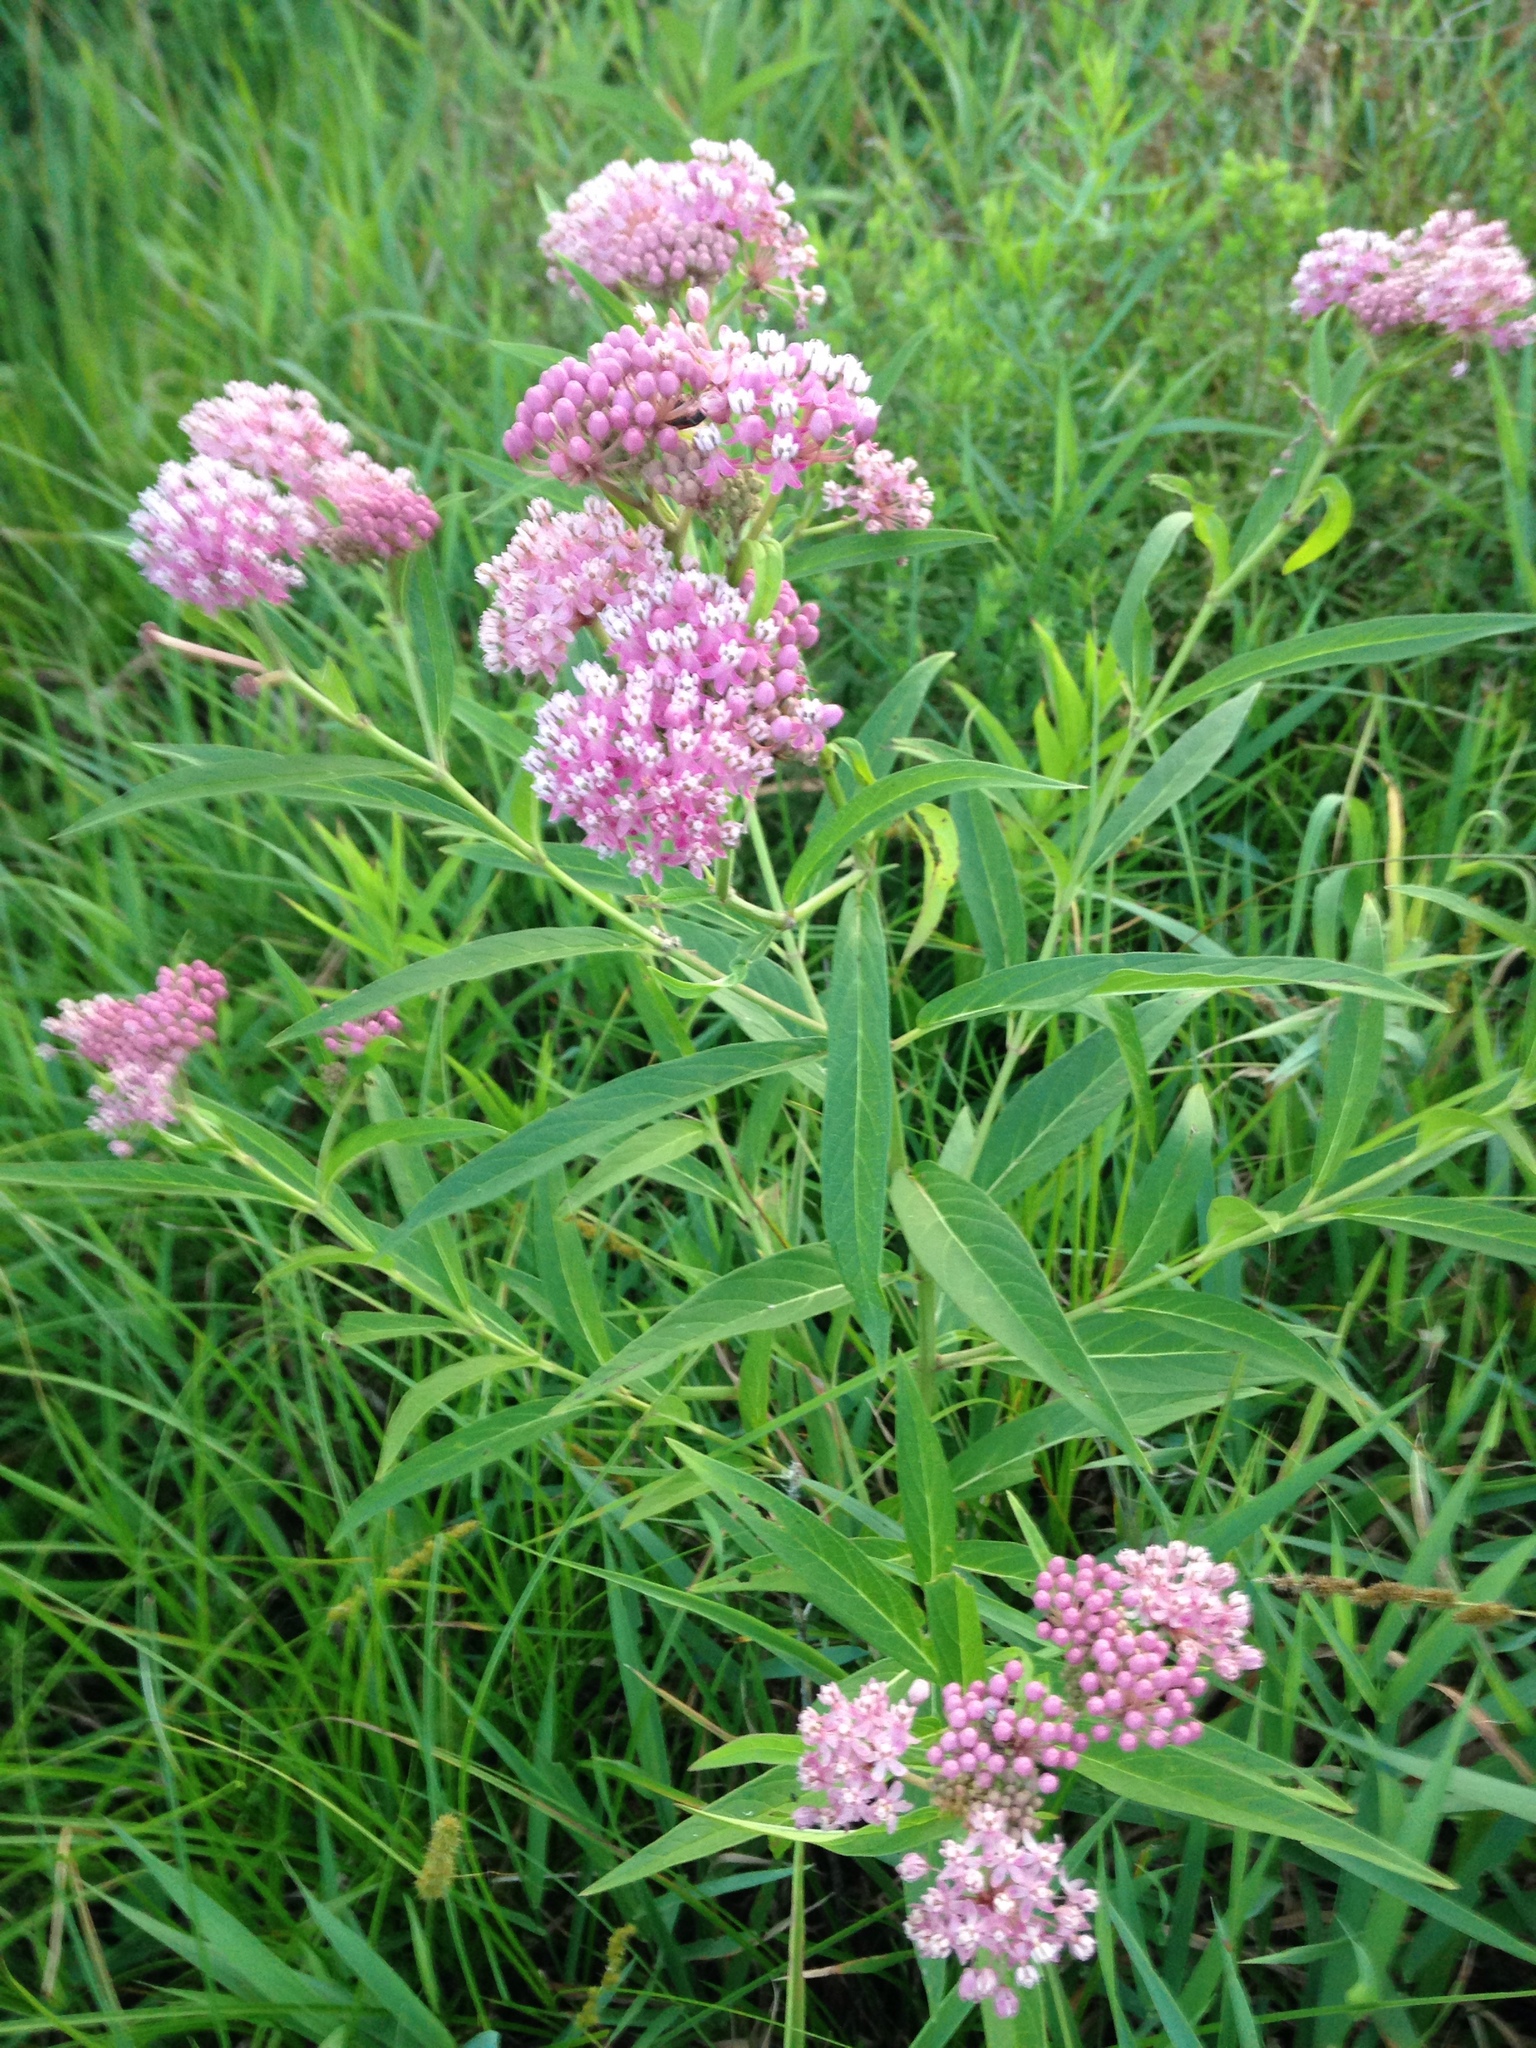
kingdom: Plantae
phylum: Tracheophyta
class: Magnoliopsida
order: Gentianales
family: Apocynaceae
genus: Asclepias
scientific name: Asclepias incarnata
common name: Swamp milkweed
